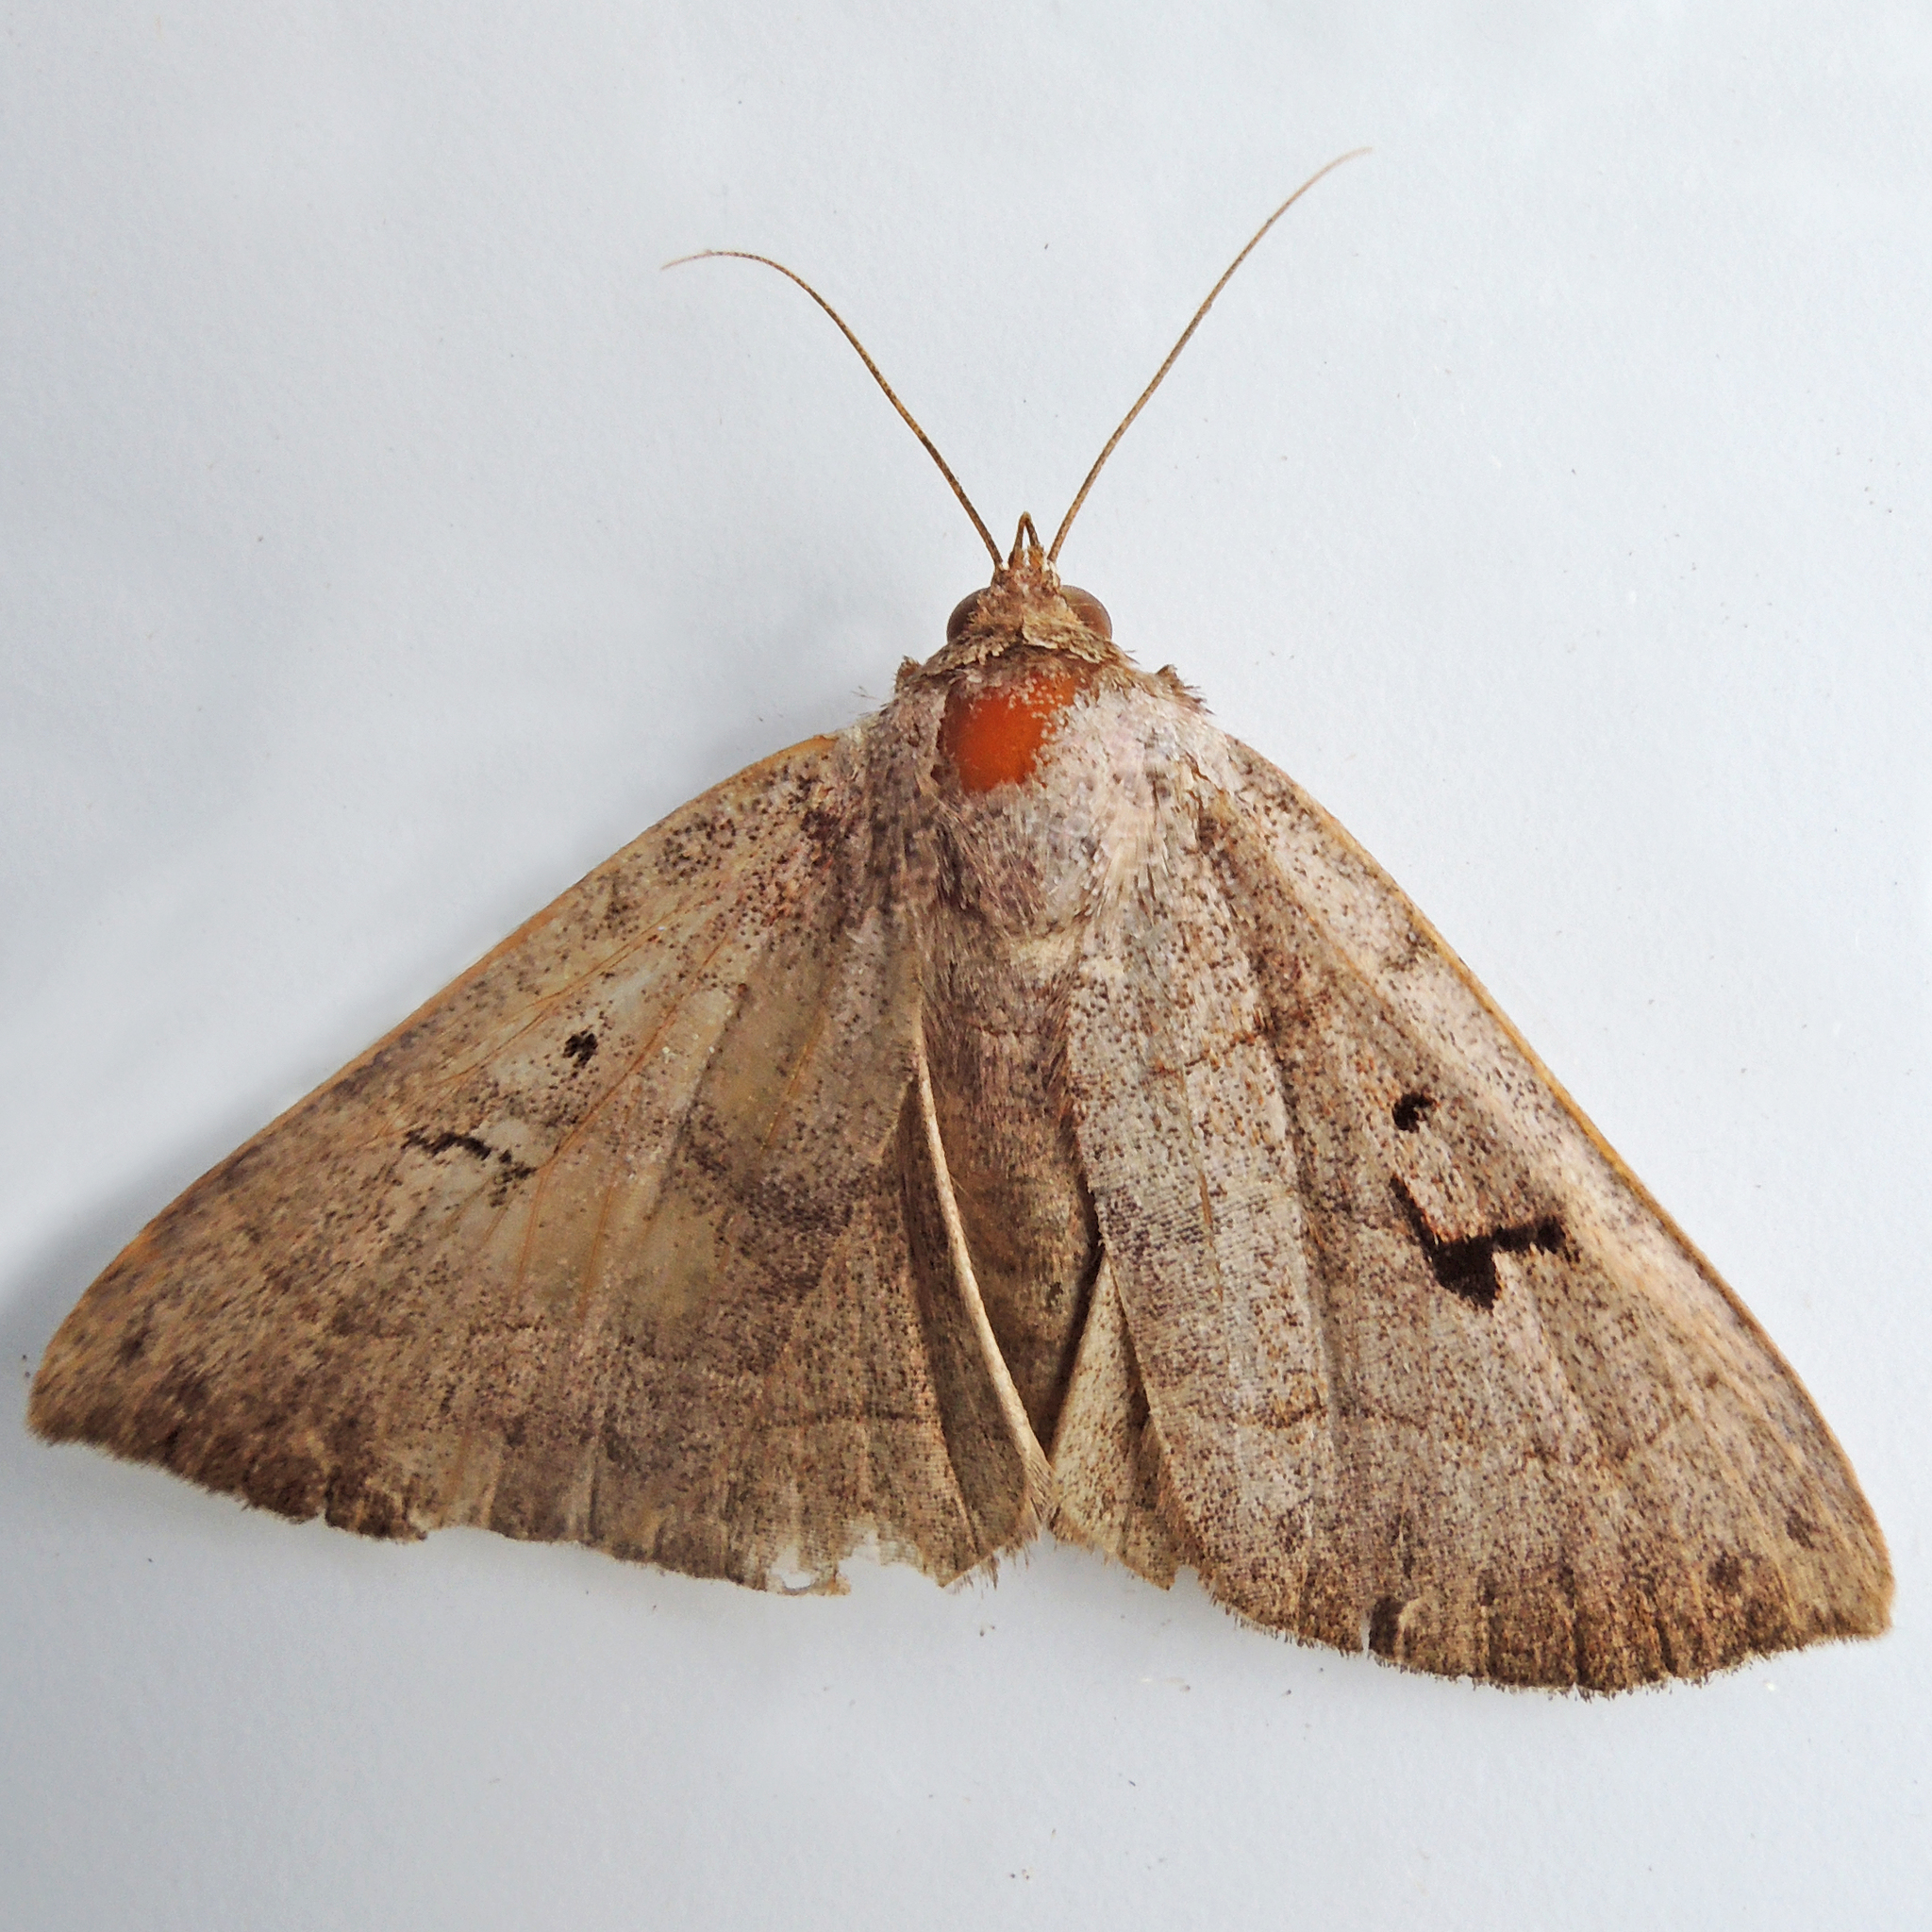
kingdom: Animalia
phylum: Arthropoda
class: Insecta
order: Lepidoptera
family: Erebidae
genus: Panopoda
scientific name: Panopoda carneicosta
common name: Brown panopoda moth
